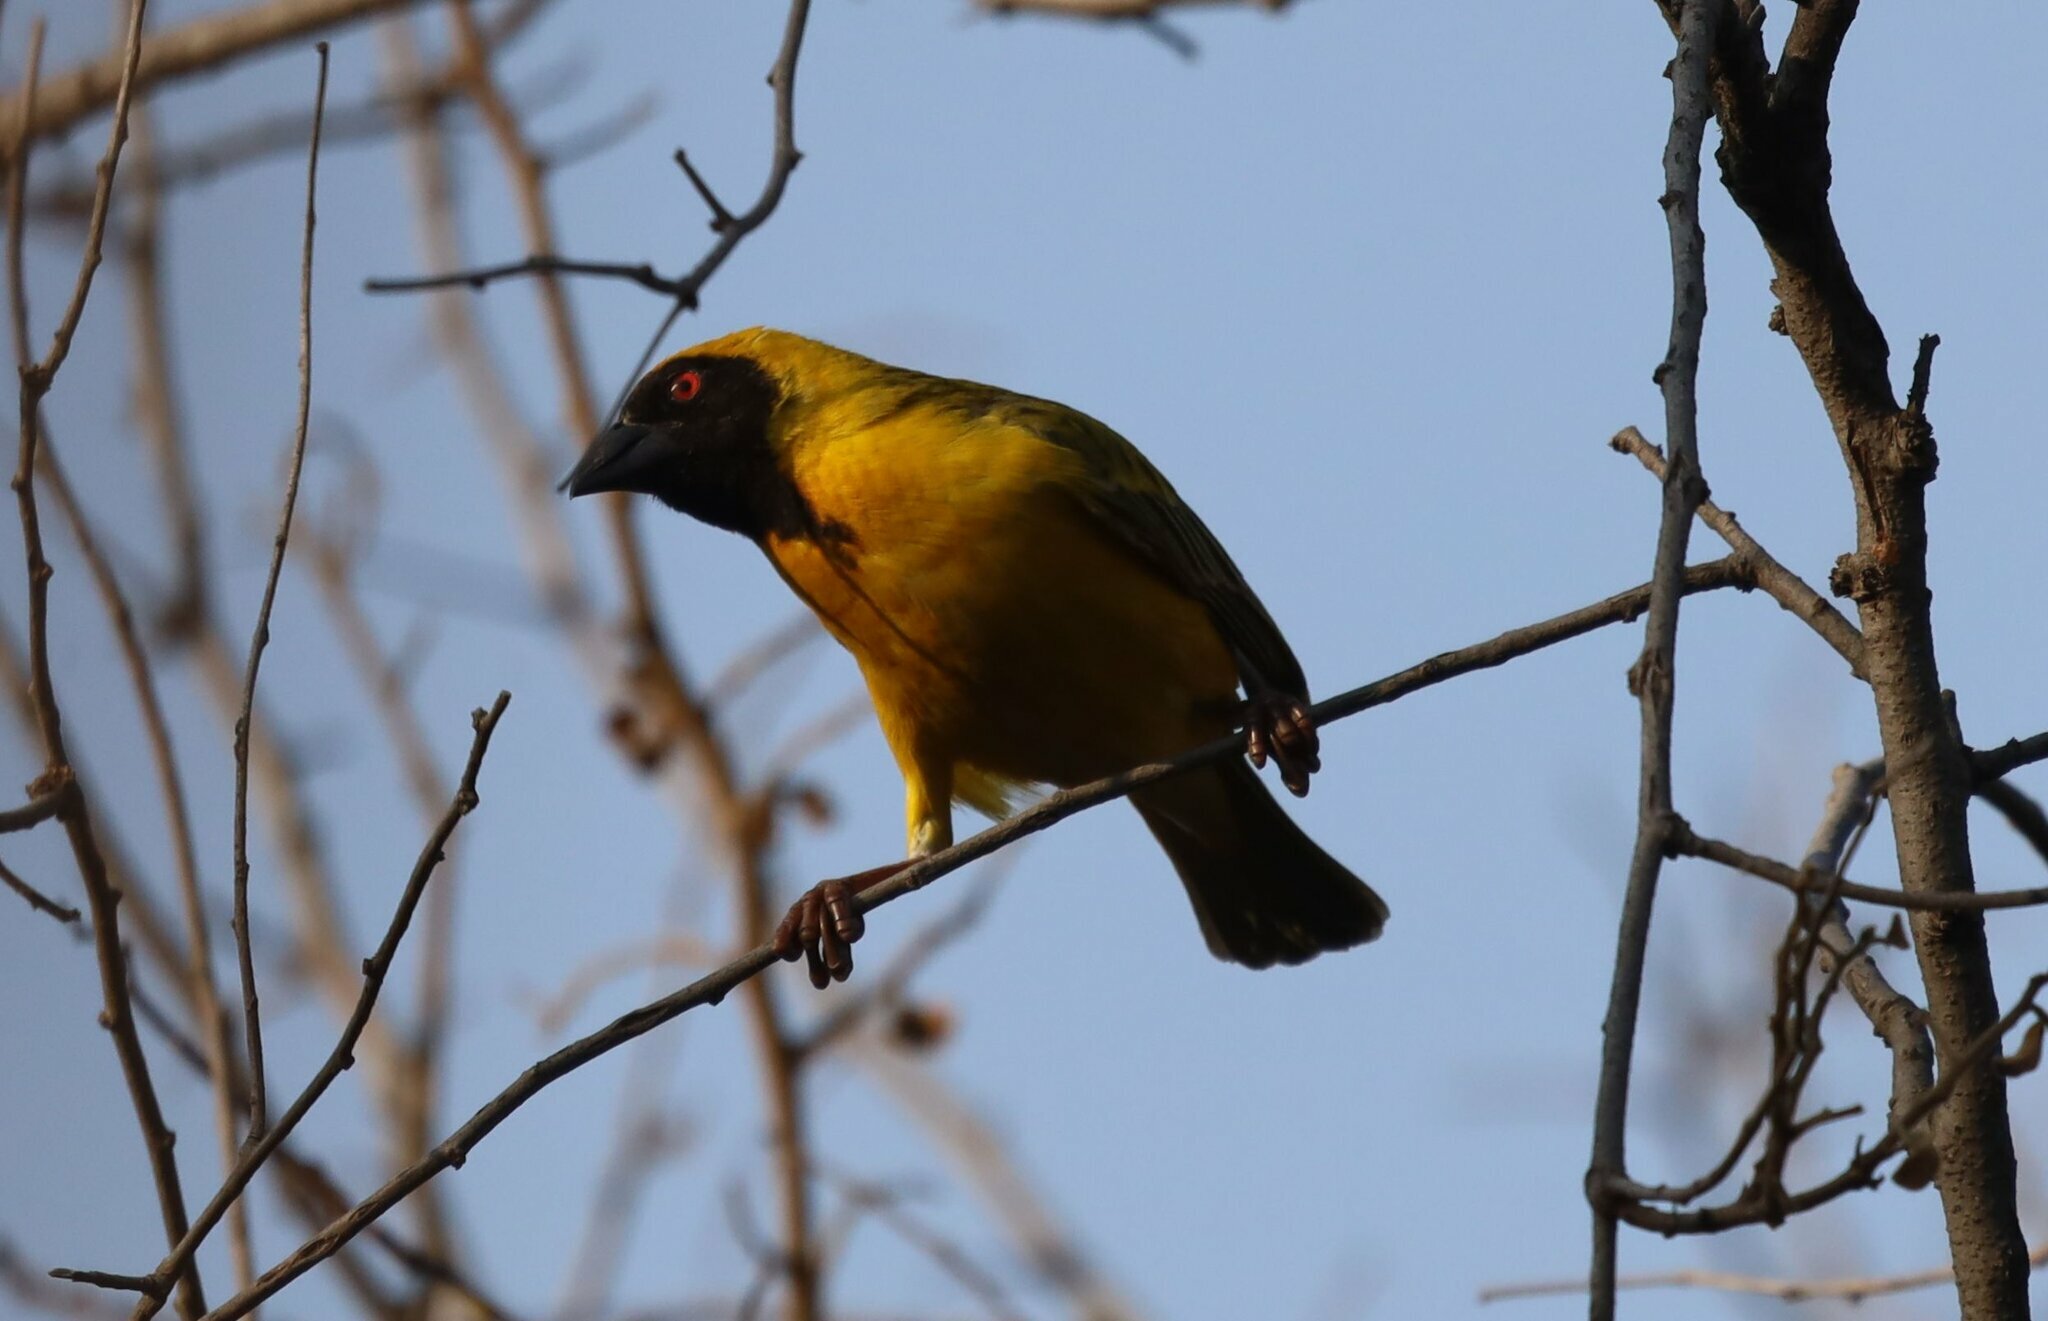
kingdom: Animalia
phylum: Chordata
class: Aves
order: Passeriformes
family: Ploceidae
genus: Ploceus
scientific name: Ploceus velatus
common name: Southern masked weaver
